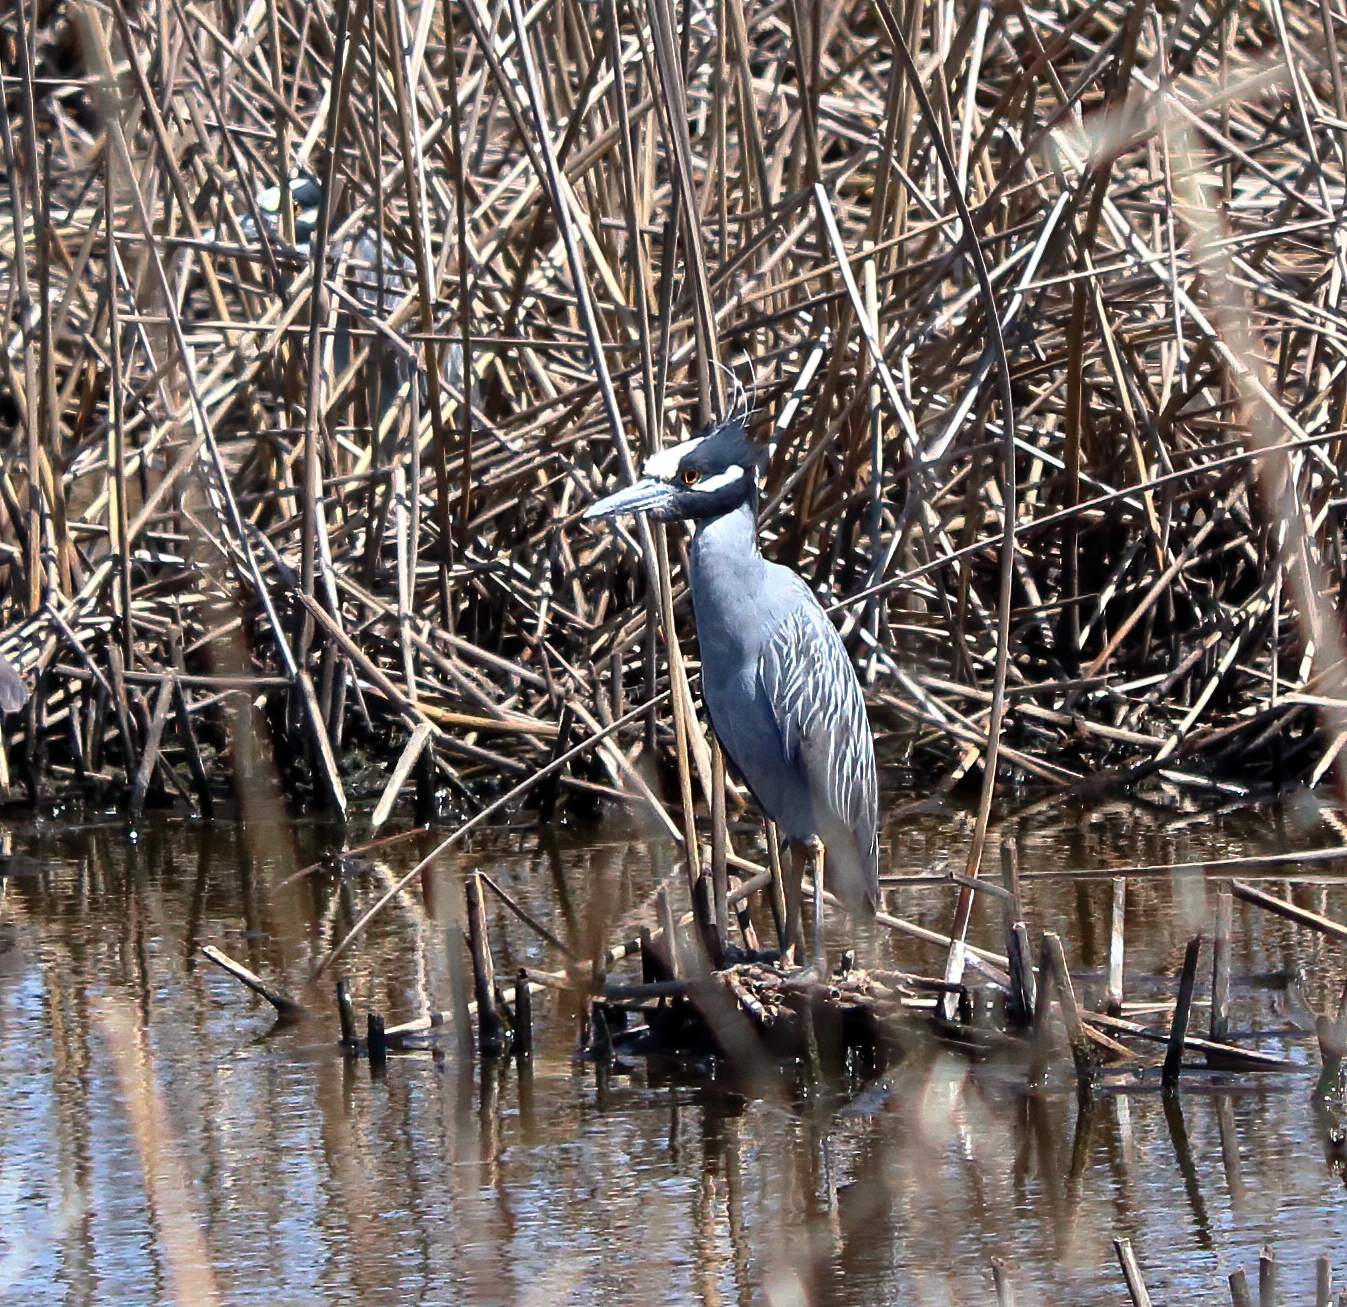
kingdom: Animalia
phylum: Chordata
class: Aves
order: Pelecaniformes
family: Ardeidae
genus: Nyctanassa
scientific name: Nyctanassa violacea
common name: Yellow-crowned night heron
